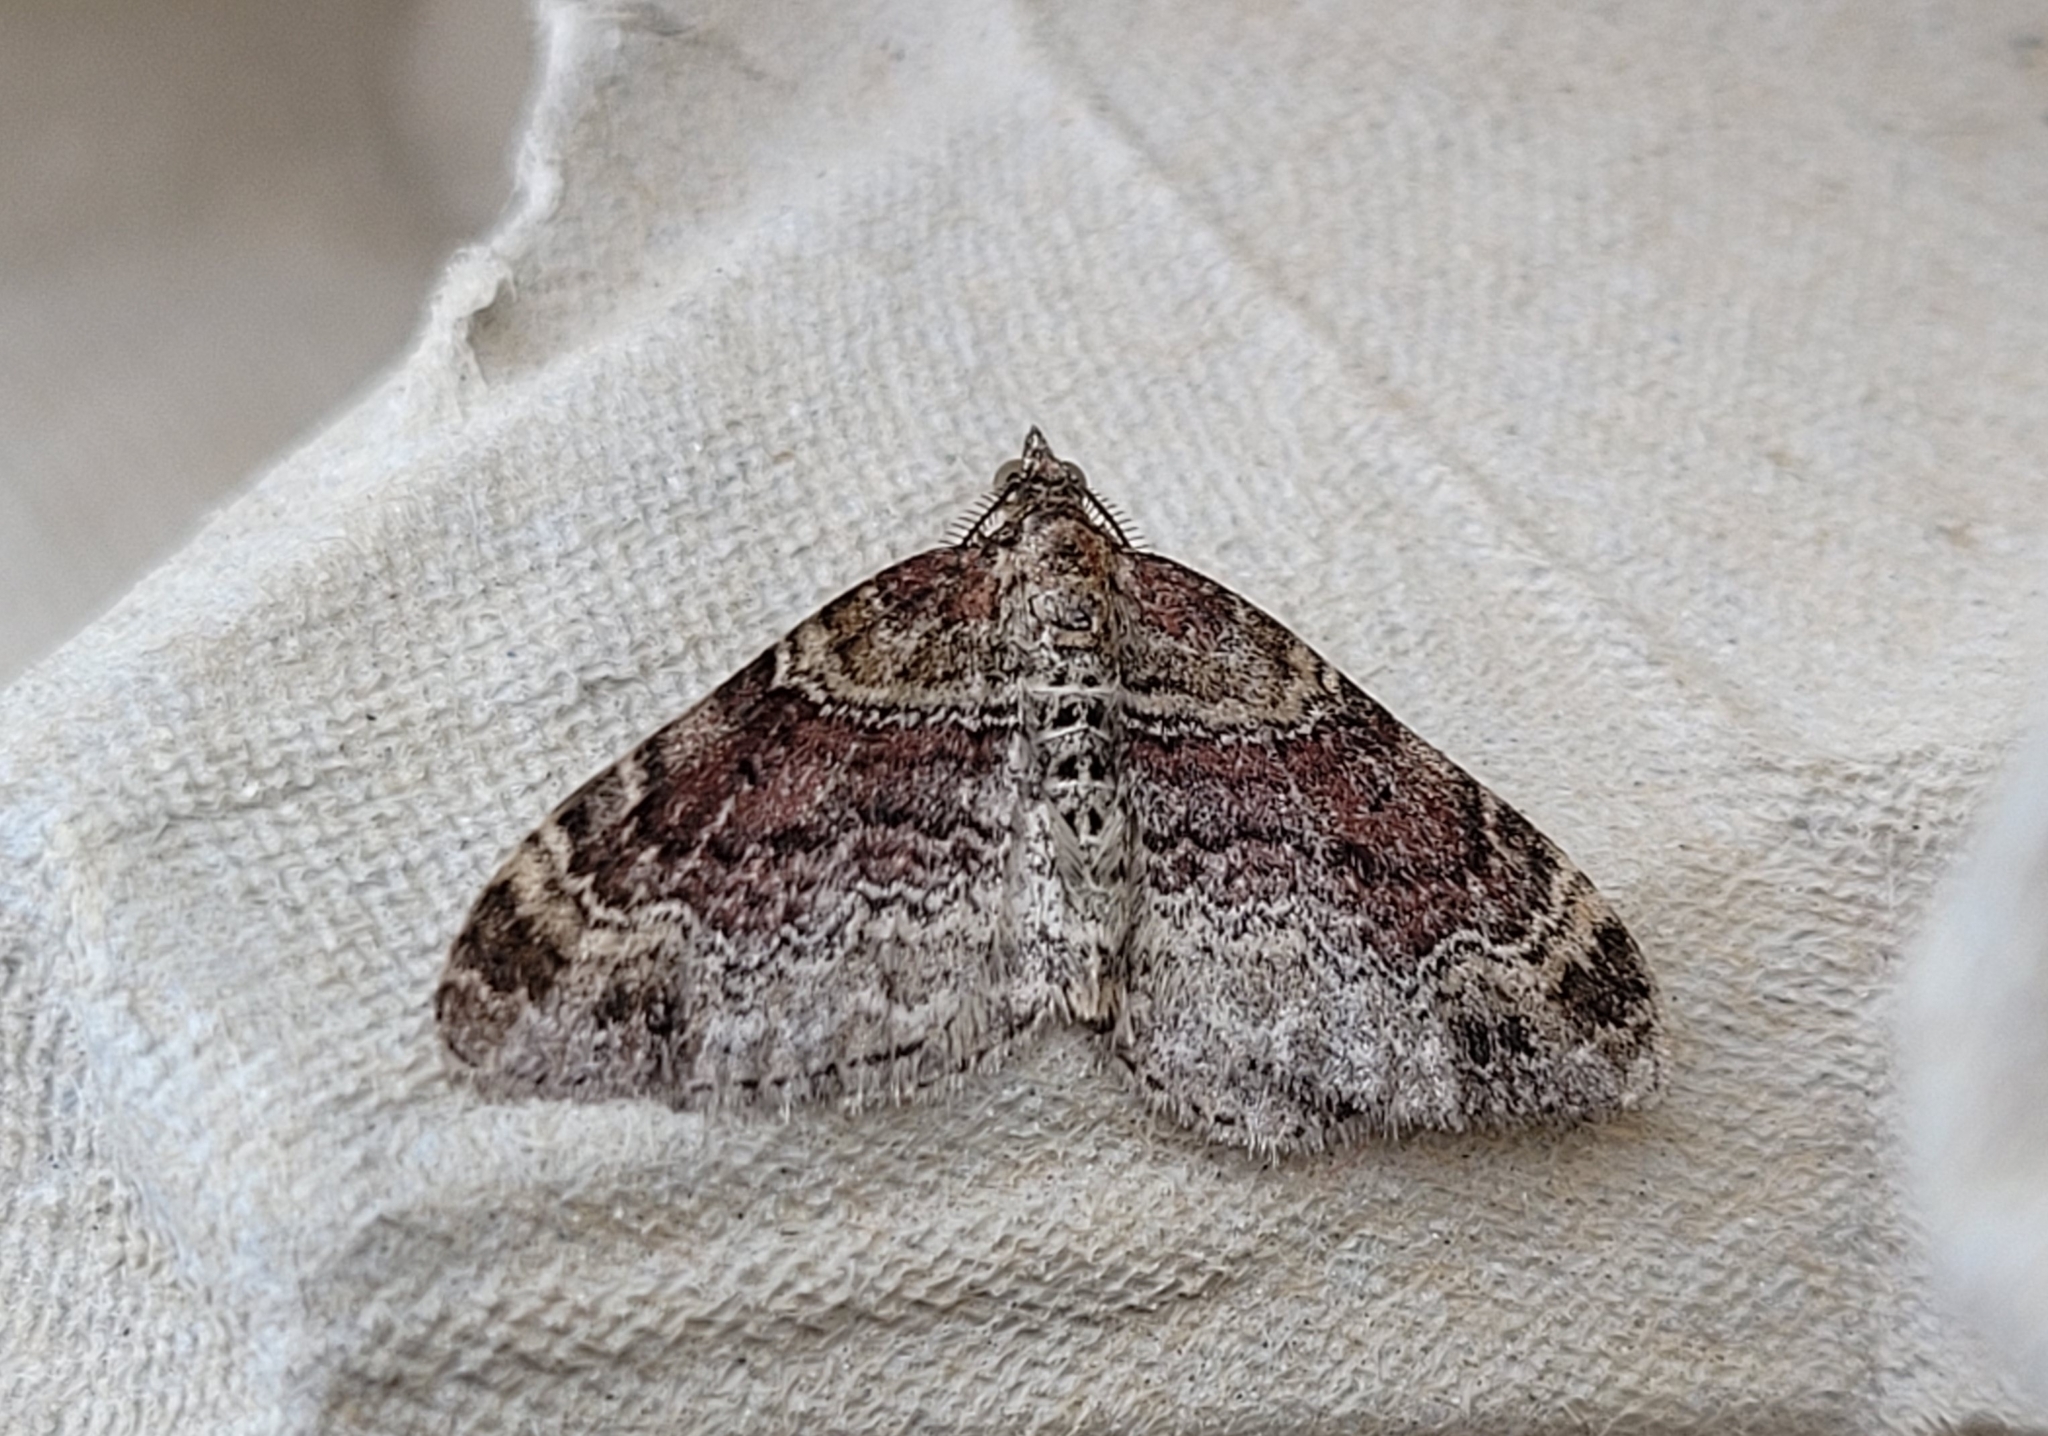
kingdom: Animalia
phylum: Arthropoda
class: Insecta
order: Lepidoptera
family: Geometridae
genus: Xanthorhoe
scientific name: Xanthorhoe spadicearia
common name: Red twin-spot carpet
